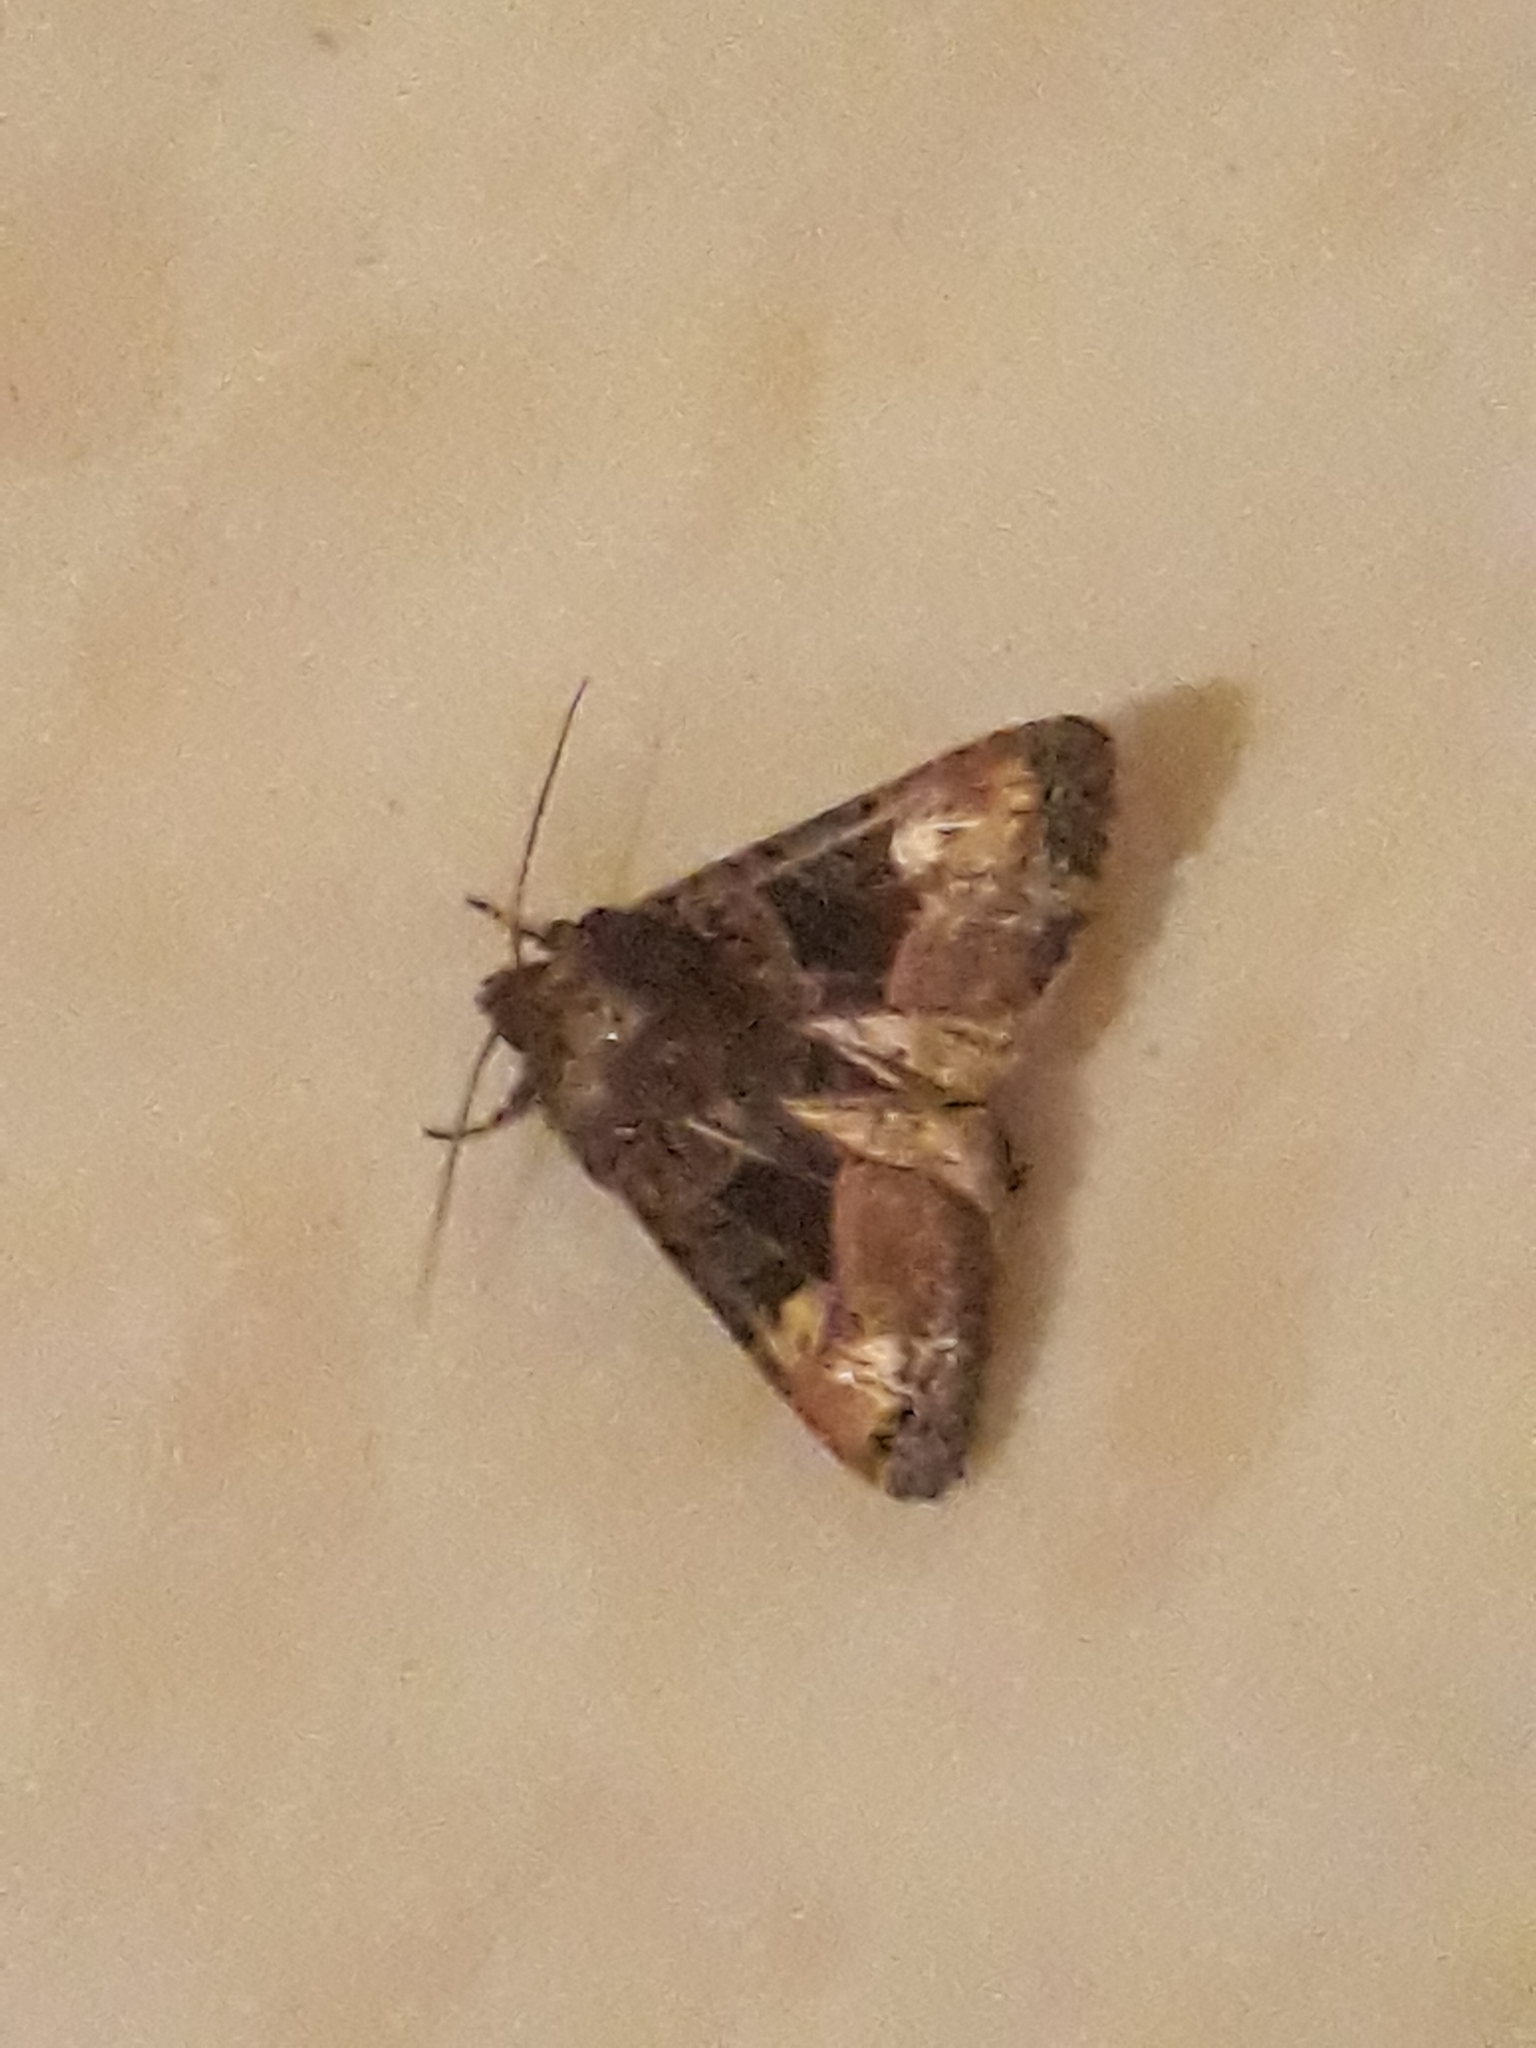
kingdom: Animalia
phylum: Arthropoda
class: Insecta
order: Lepidoptera
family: Noctuidae
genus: Euplexia
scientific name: Euplexia lucipara
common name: Small angle shades
